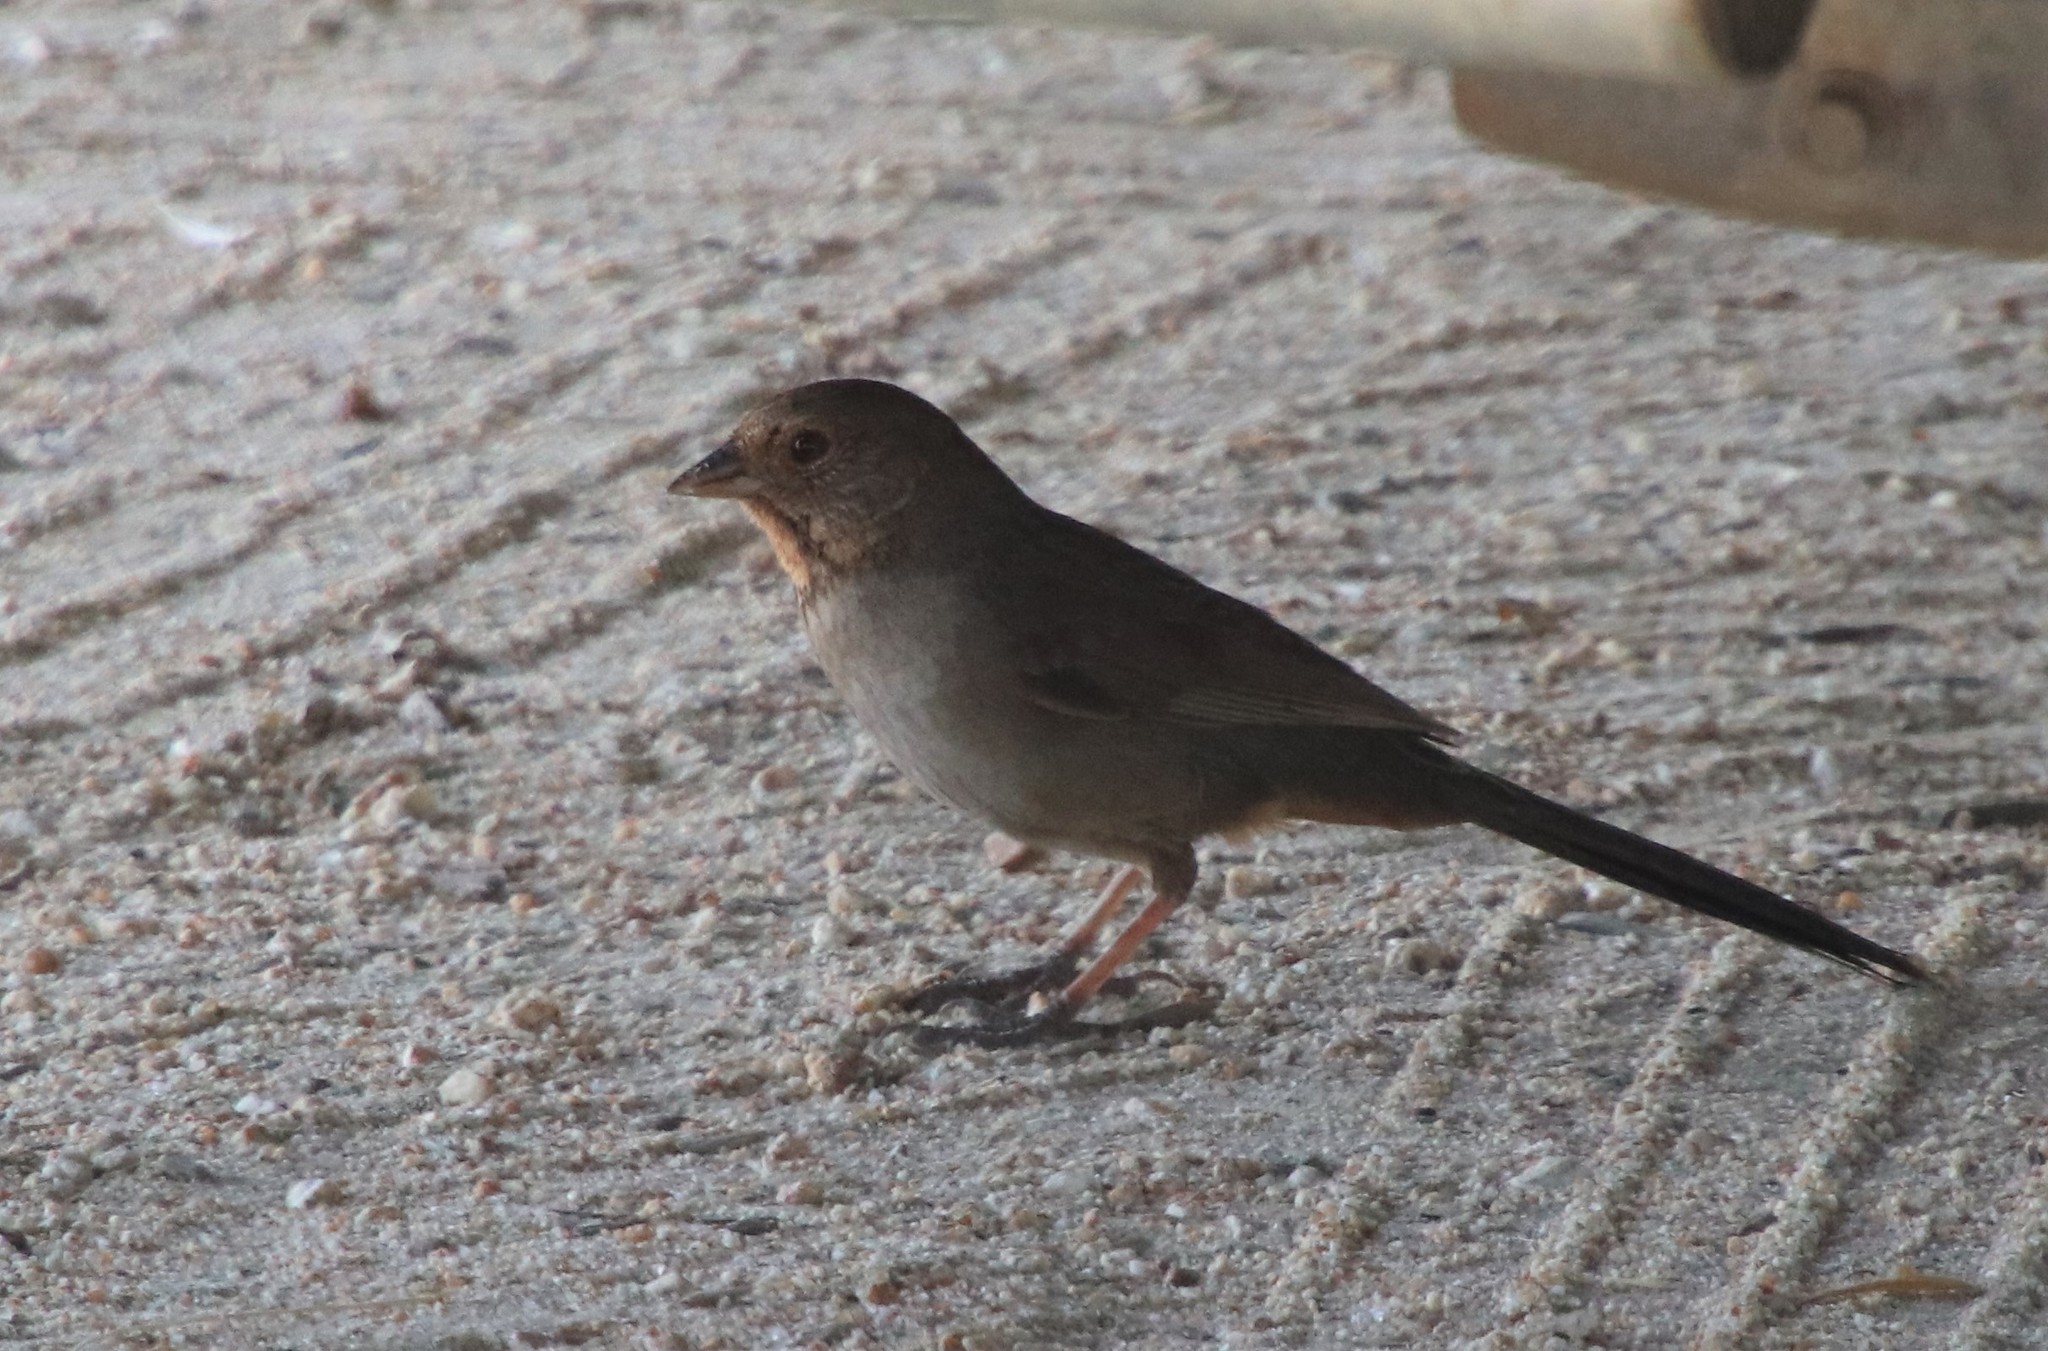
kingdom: Animalia
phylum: Chordata
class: Aves
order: Passeriformes
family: Passerellidae
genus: Melozone
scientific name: Melozone crissalis
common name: California towhee
